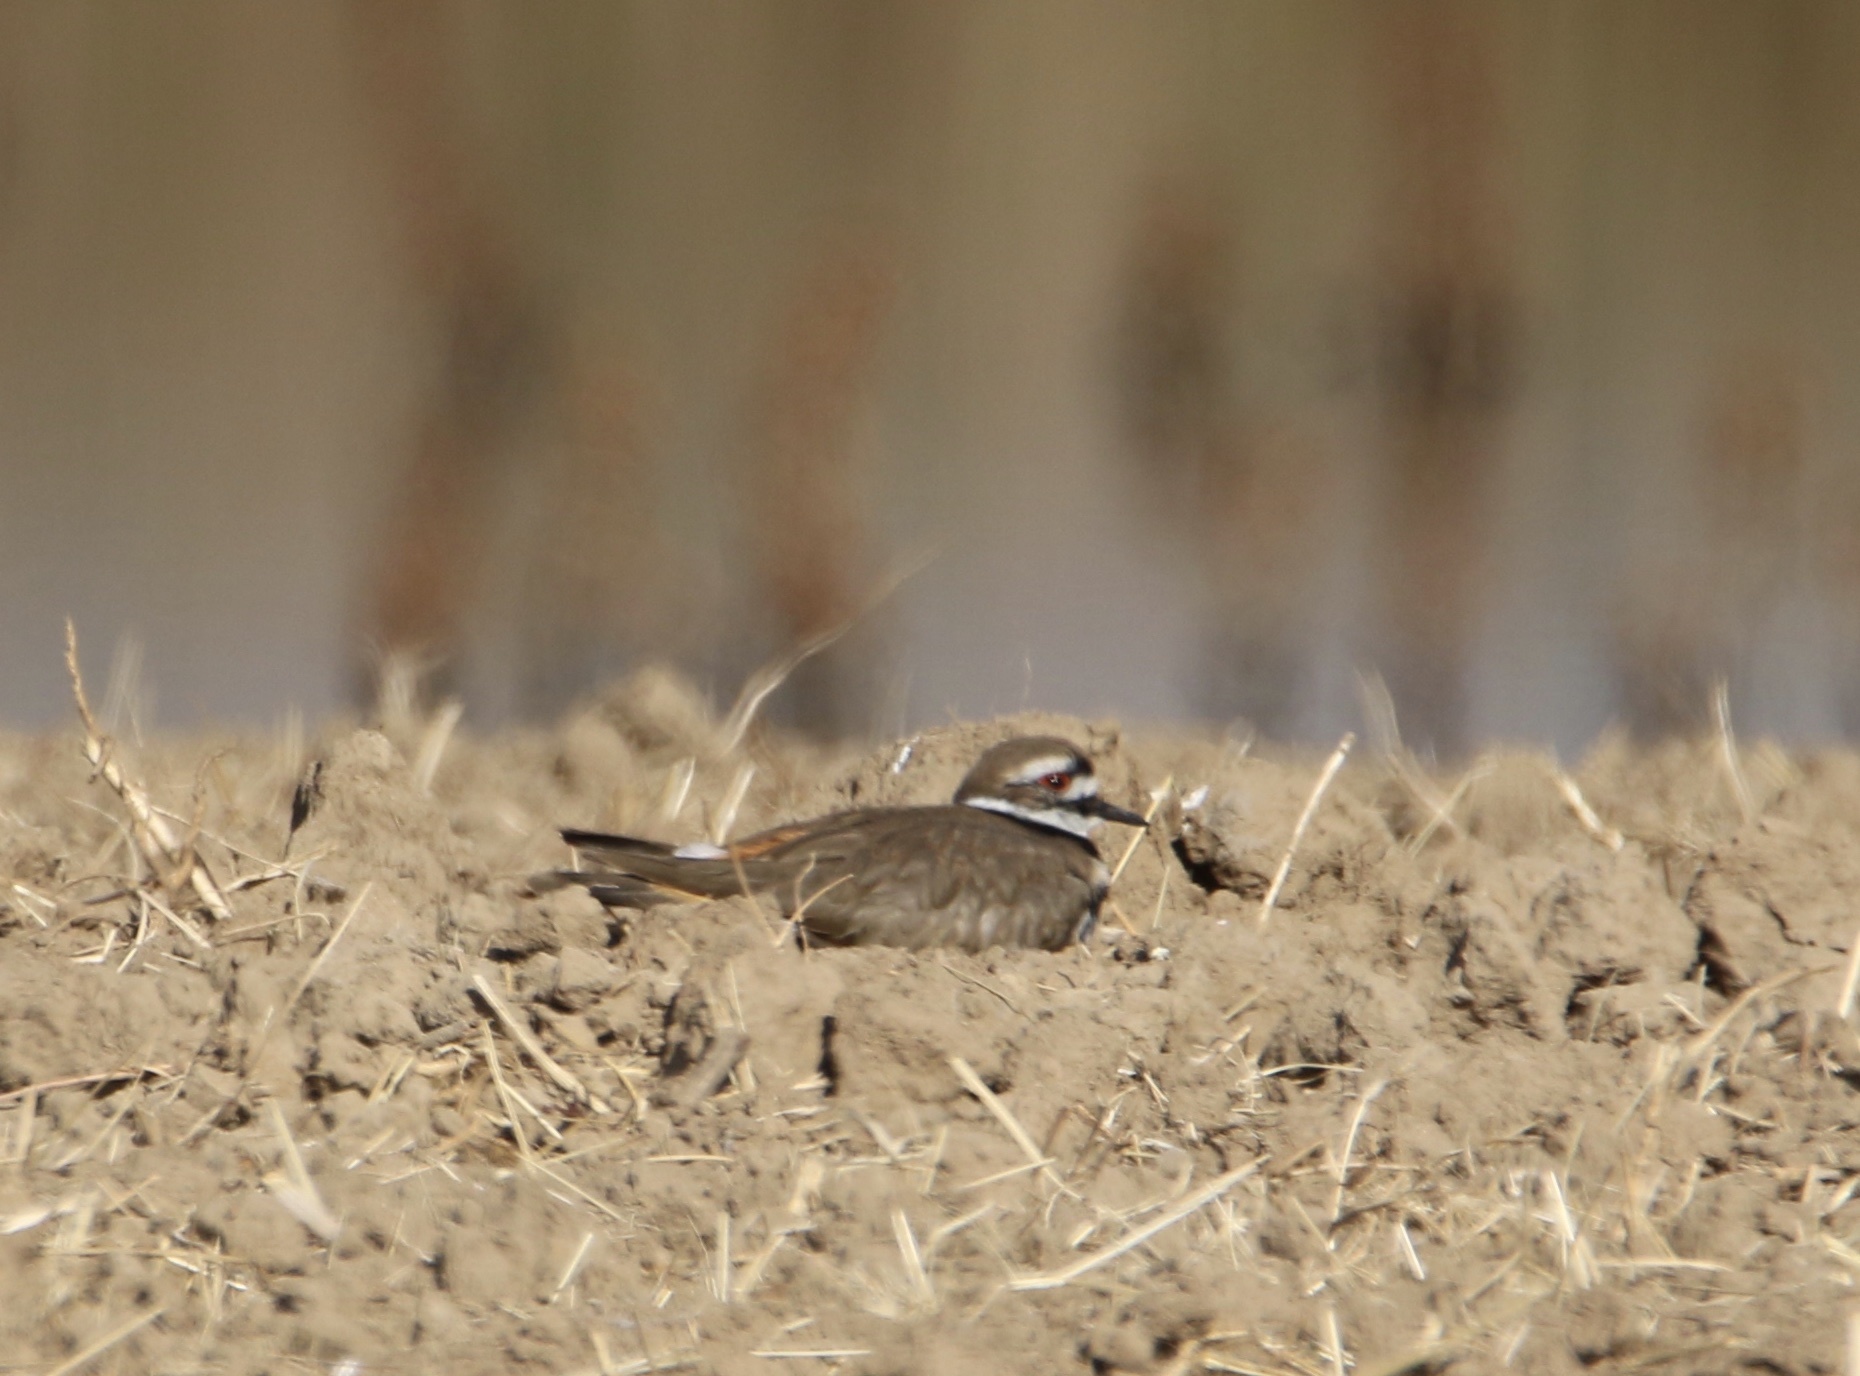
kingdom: Animalia
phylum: Chordata
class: Aves
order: Charadriiformes
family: Charadriidae
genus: Charadrius
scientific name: Charadrius vociferus
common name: Killdeer
